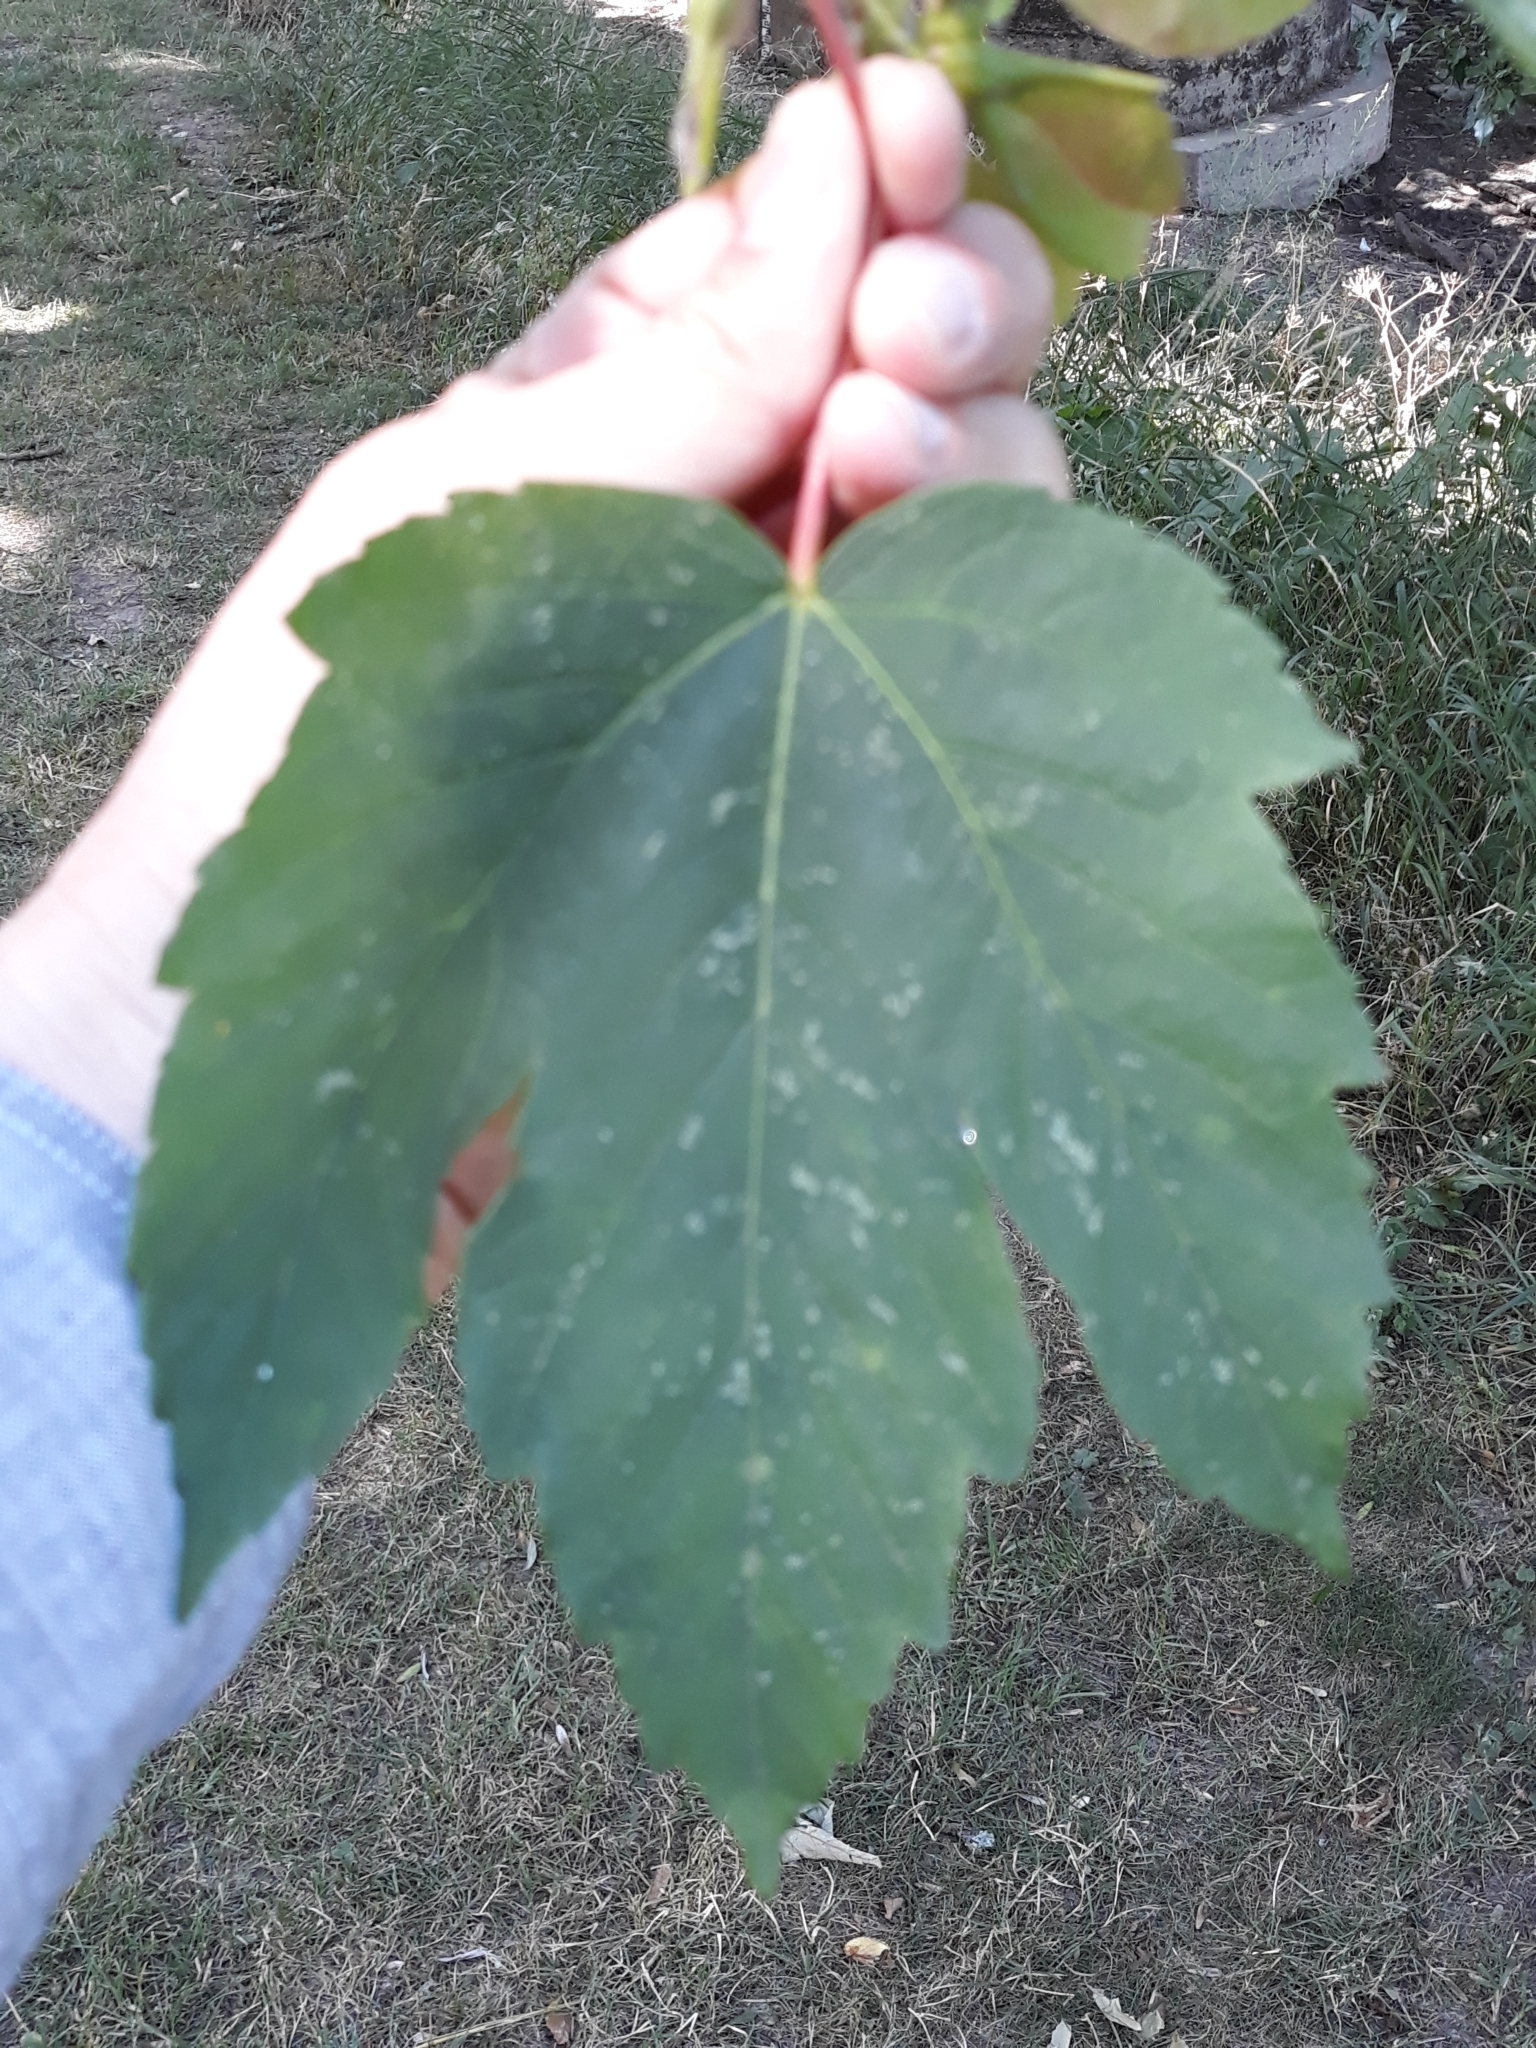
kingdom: Plantae
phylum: Tracheophyta
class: Magnoliopsida
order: Sapindales
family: Sapindaceae
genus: Acer
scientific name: Acer pseudoplatanus
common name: Sycamore
